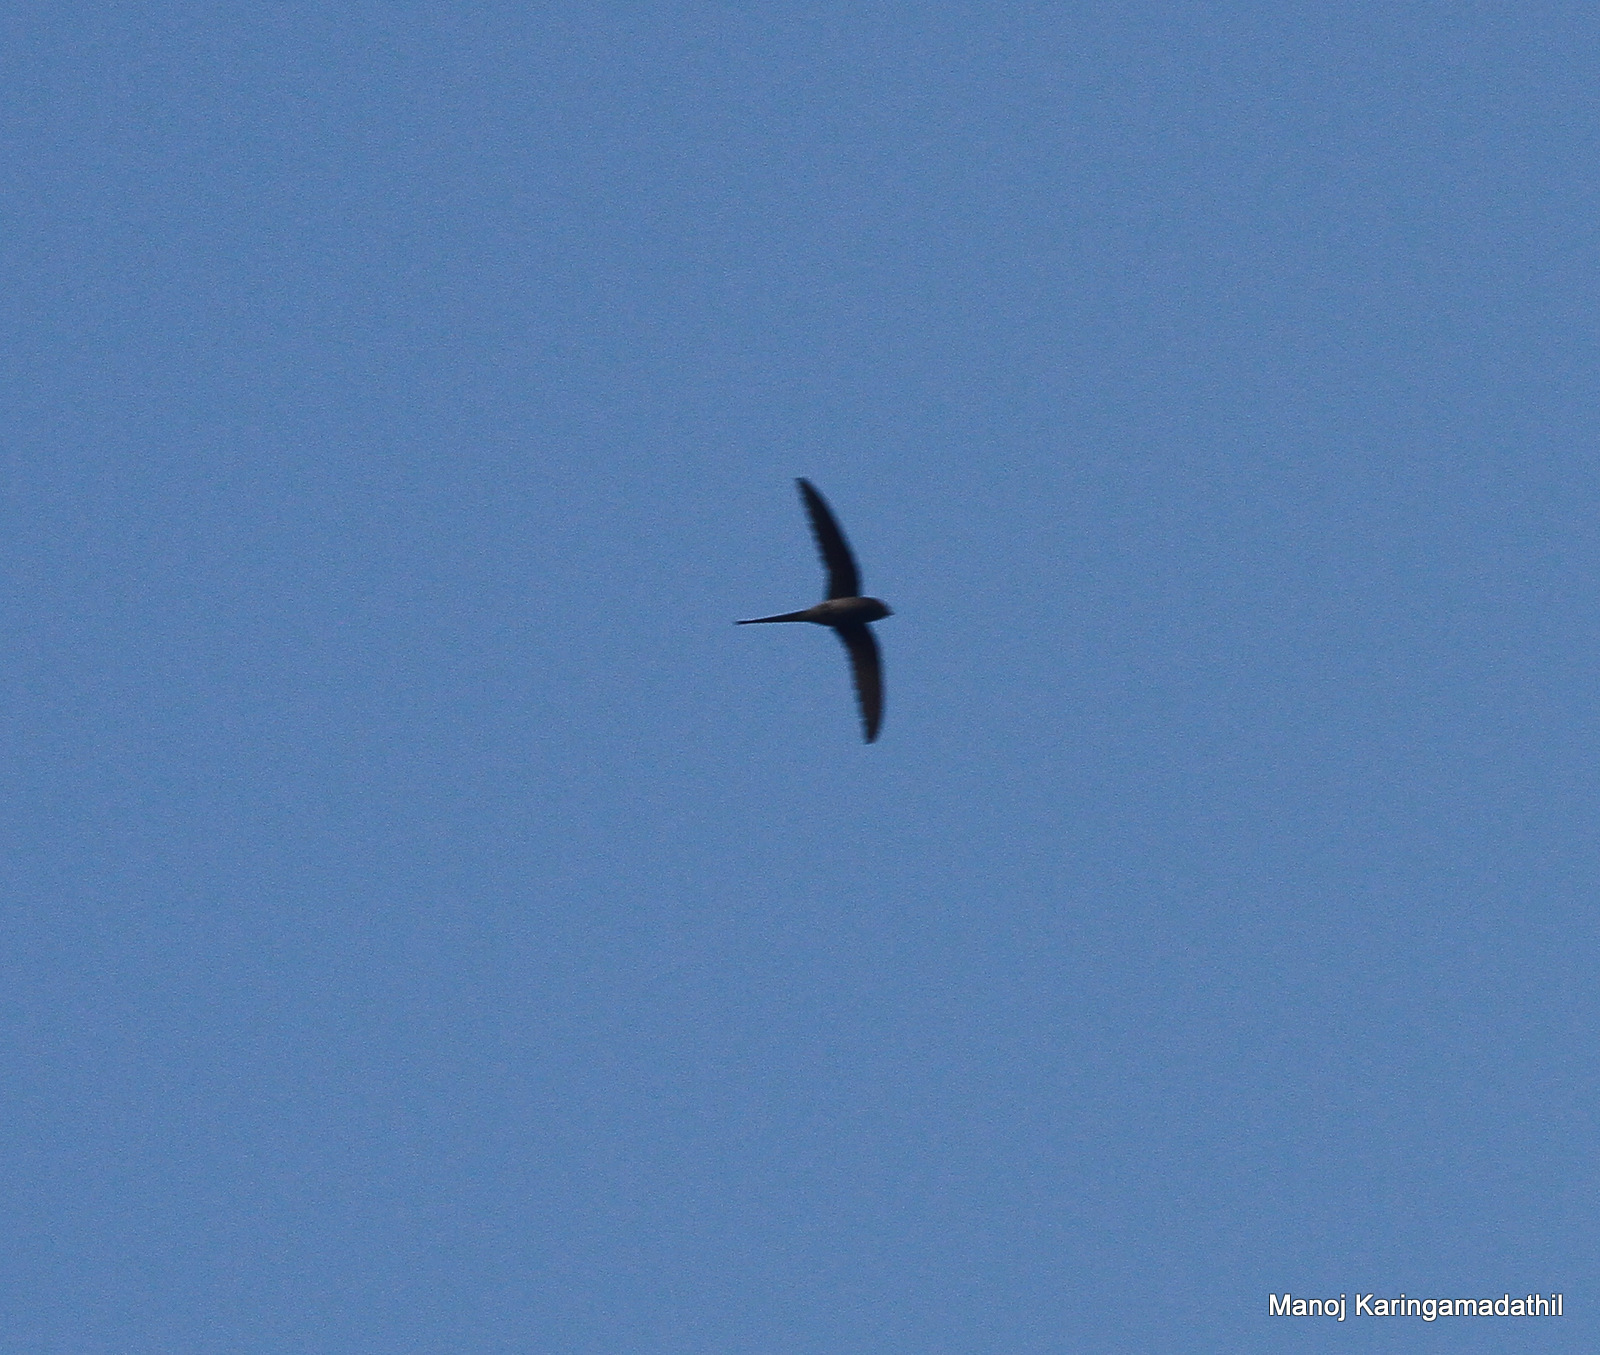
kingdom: Animalia
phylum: Chordata
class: Aves
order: Apodiformes
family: Hemiprocnidae
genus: Hemiprocne
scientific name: Hemiprocne coronata
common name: Crested treeswift
